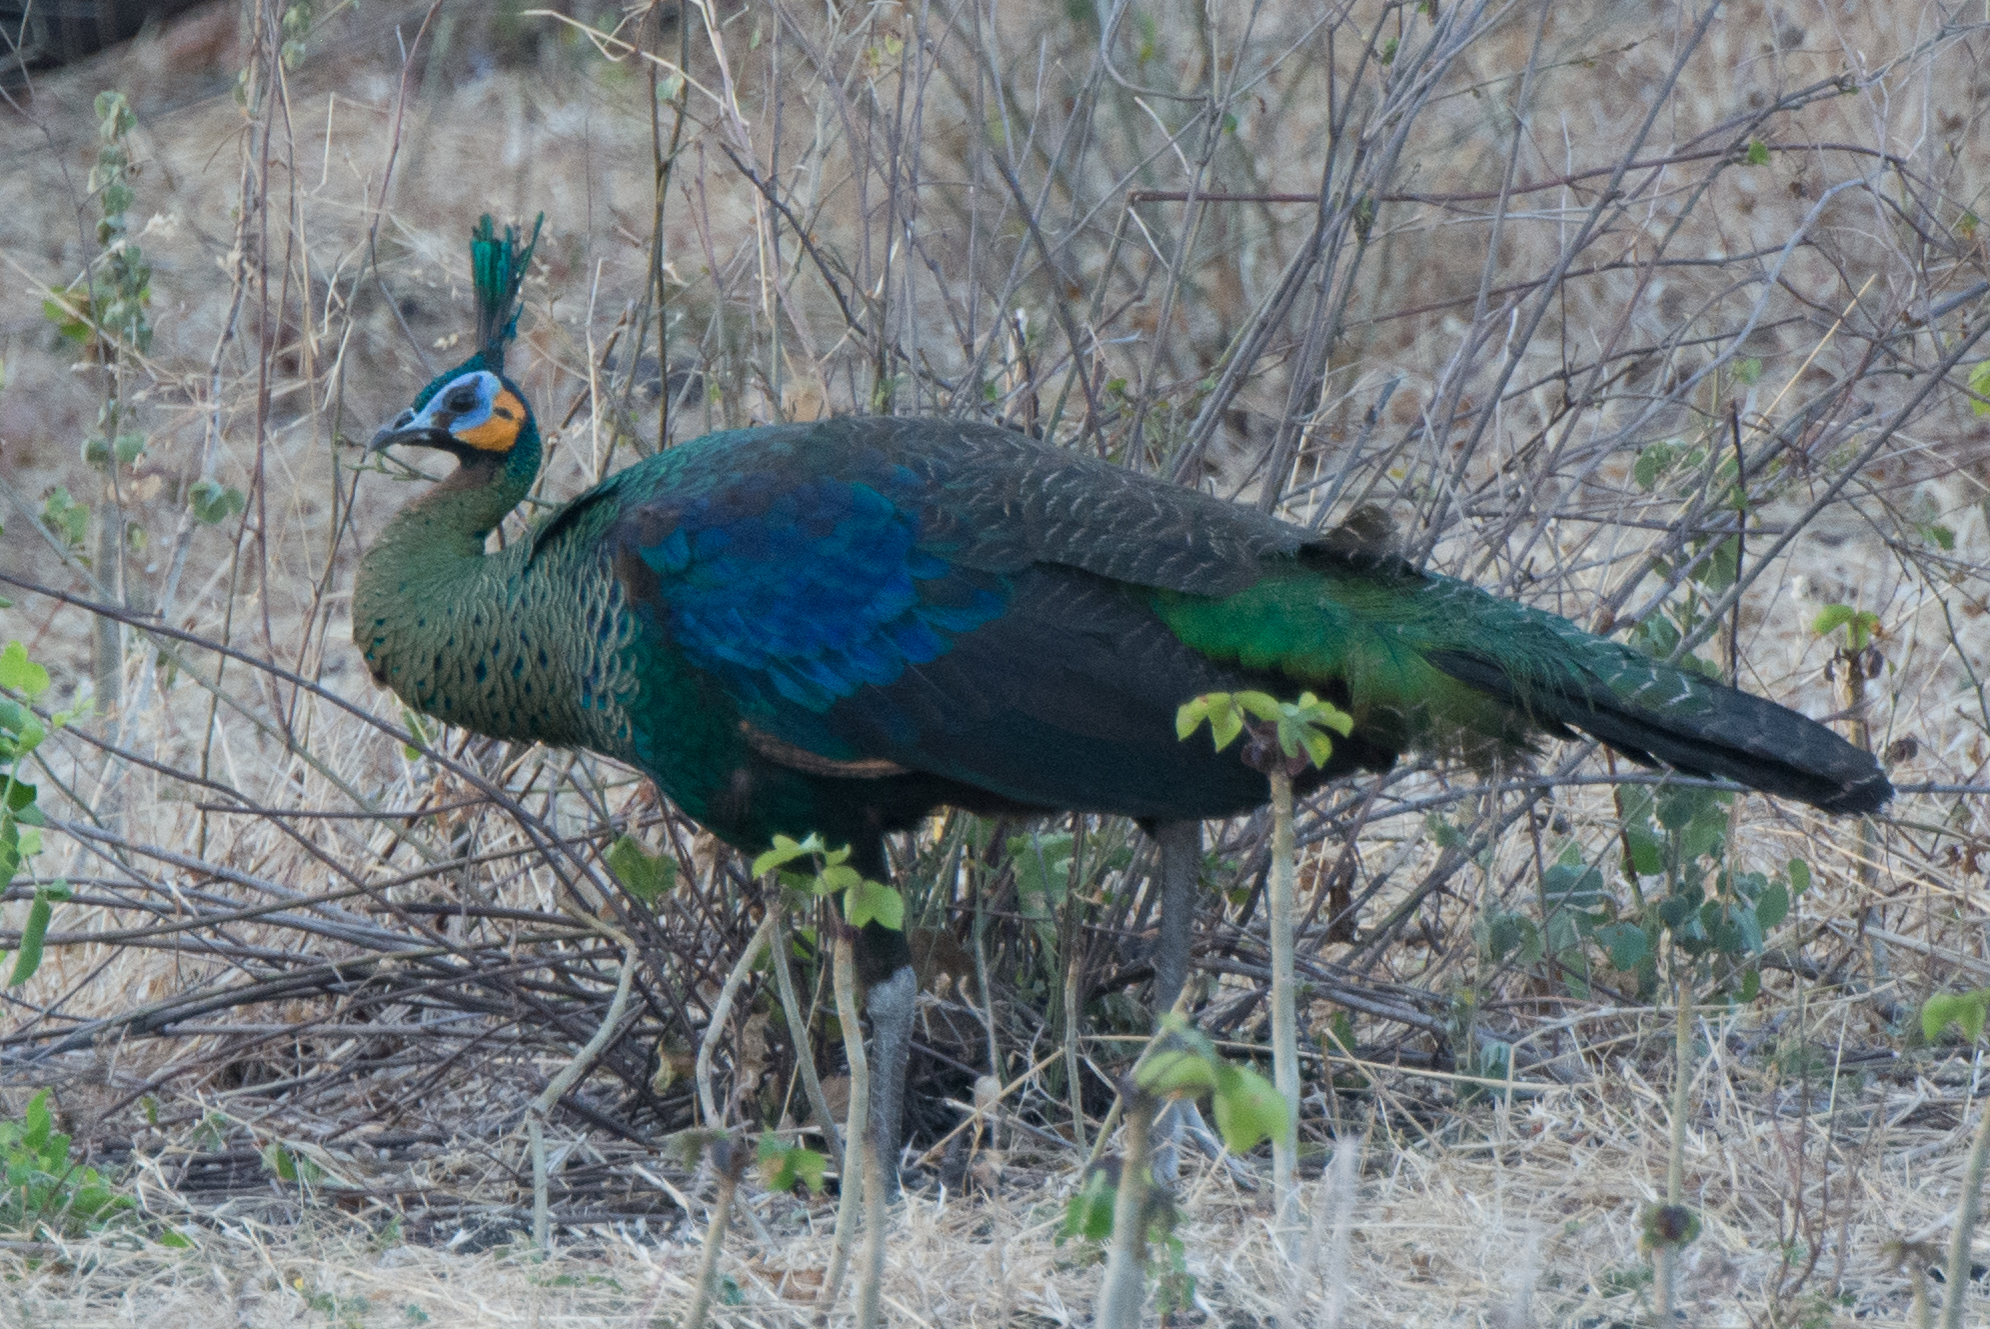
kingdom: Animalia
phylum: Chordata
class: Aves
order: Galliformes
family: Phasianidae
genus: Pavo
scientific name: Pavo muticus
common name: Green peafowl
